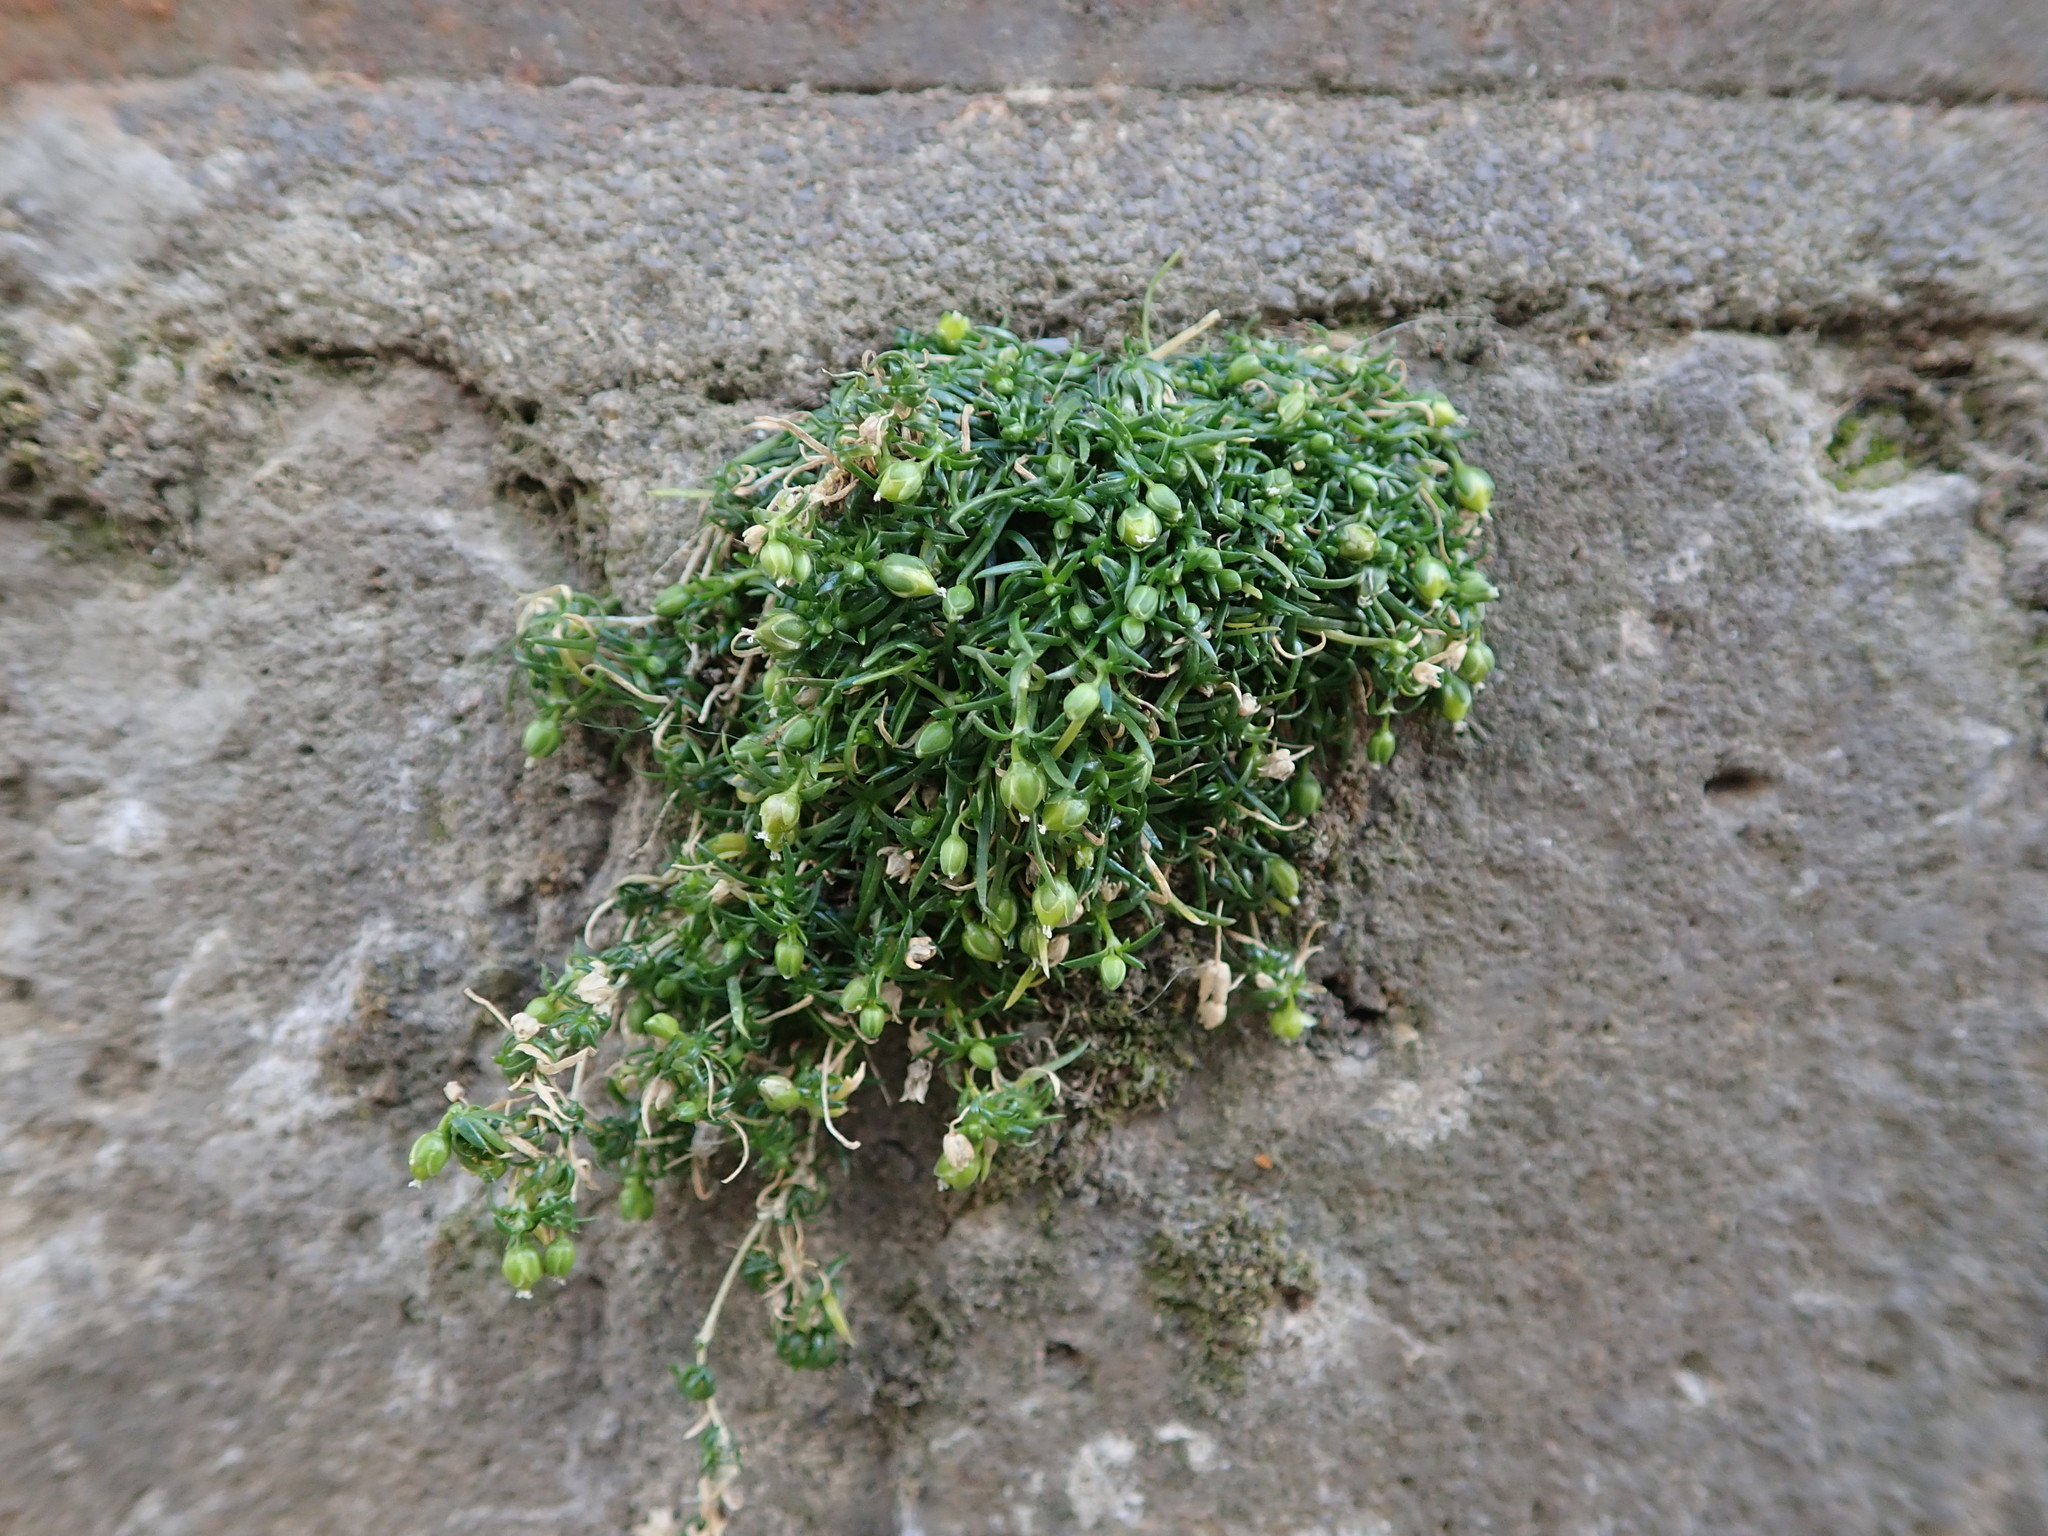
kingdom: Plantae
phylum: Tracheophyta
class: Magnoliopsida
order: Caryophyllales
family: Caryophyllaceae
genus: Sagina
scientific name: Sagina procumbens
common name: Procumbent pearlwort
